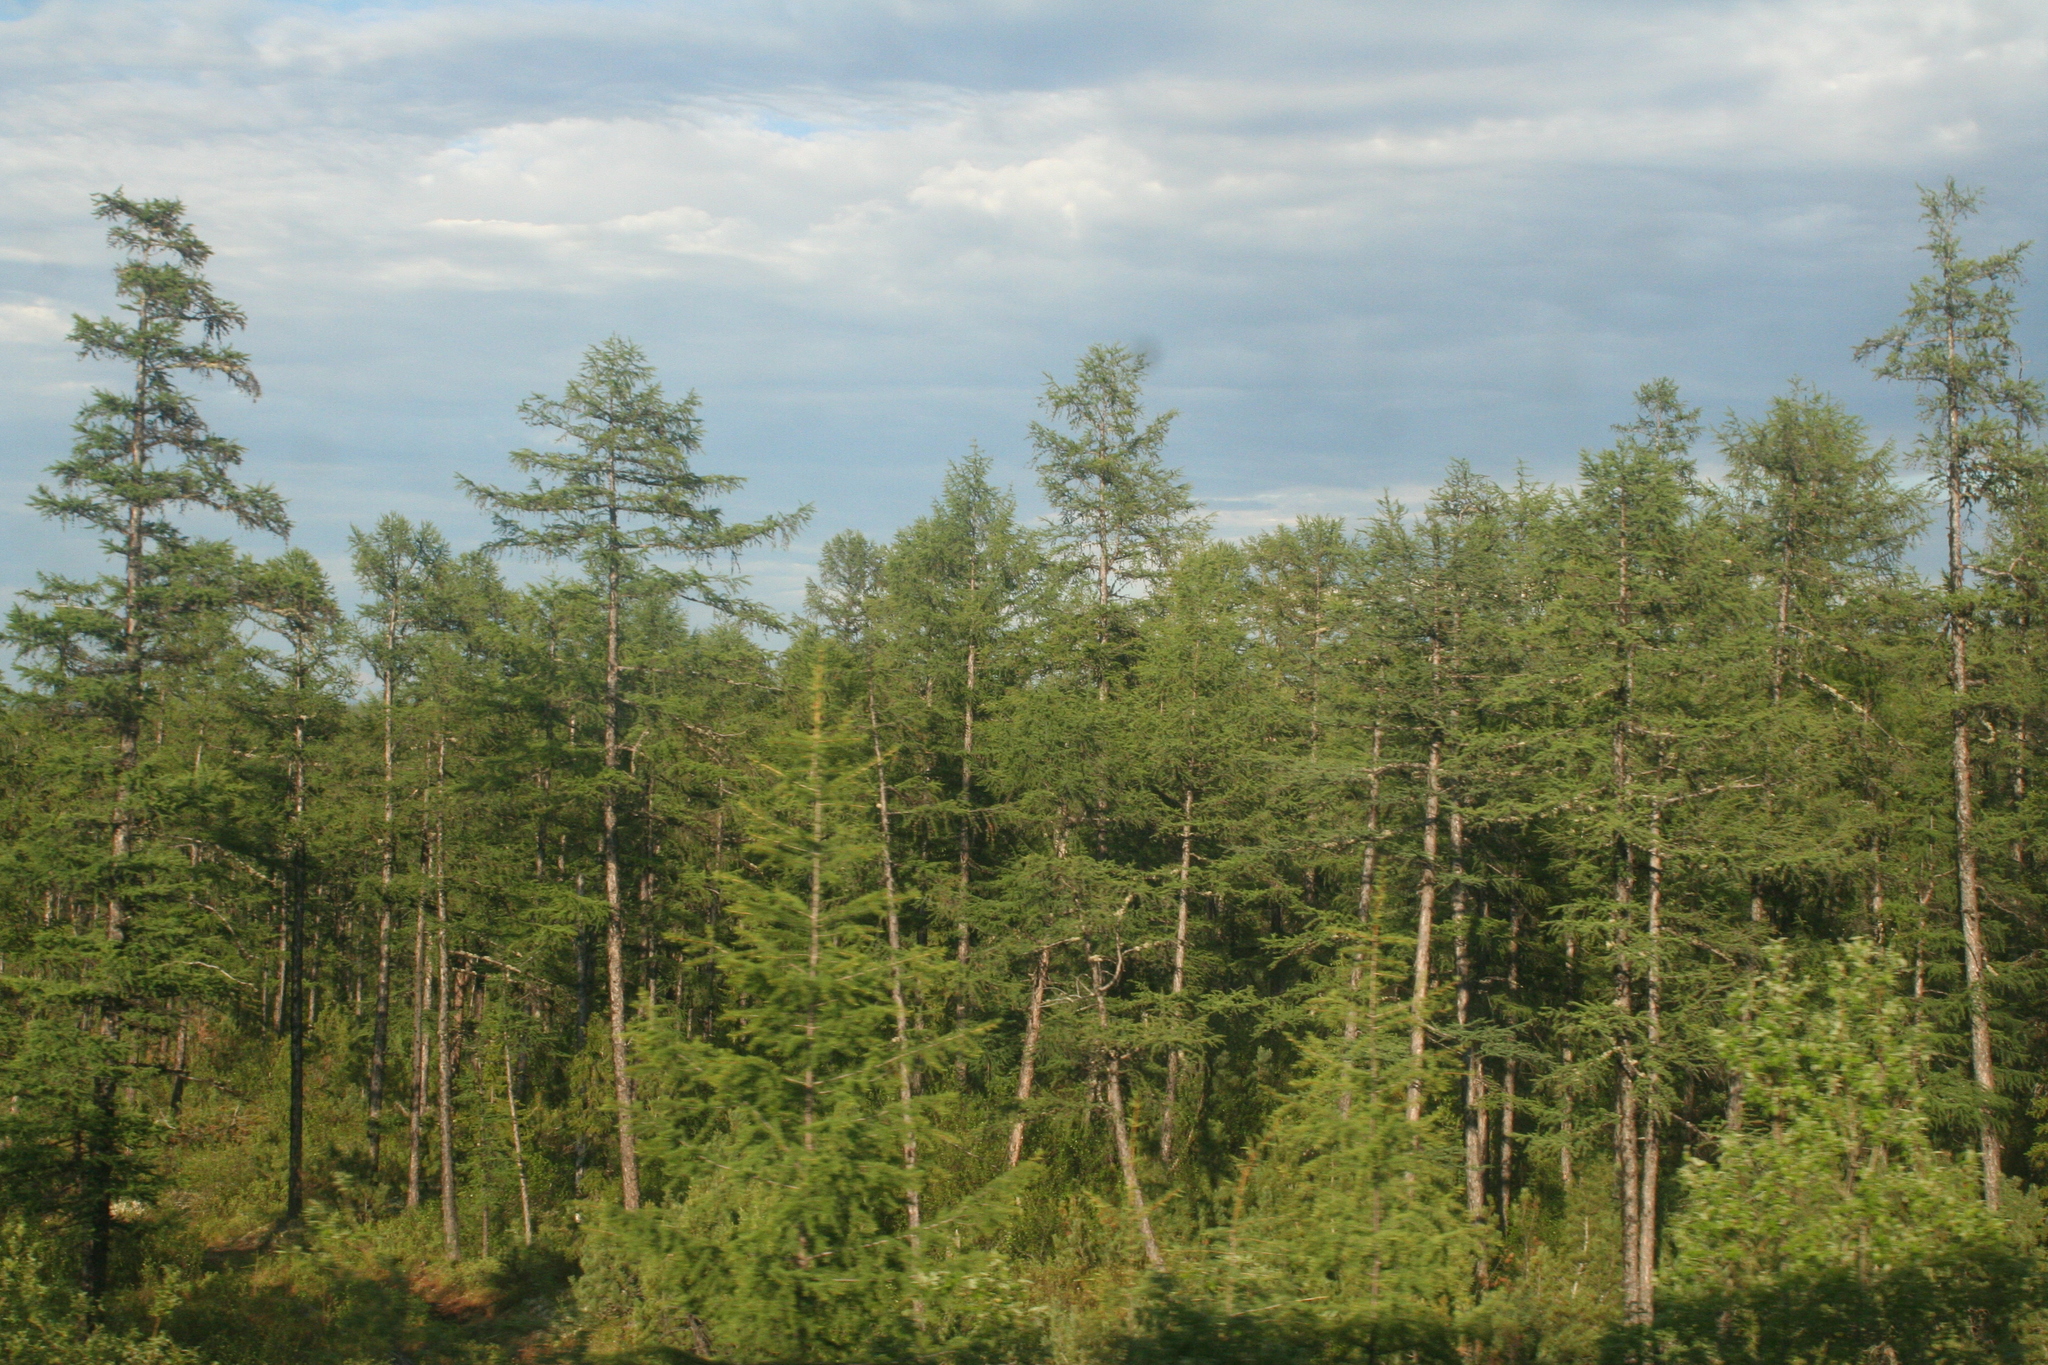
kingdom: Plantae
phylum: Tracheophyta
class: Pinopsida
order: Pinales
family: Pinaceae
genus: Larix
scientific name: Larix gmelinii
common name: Dahurian larch
